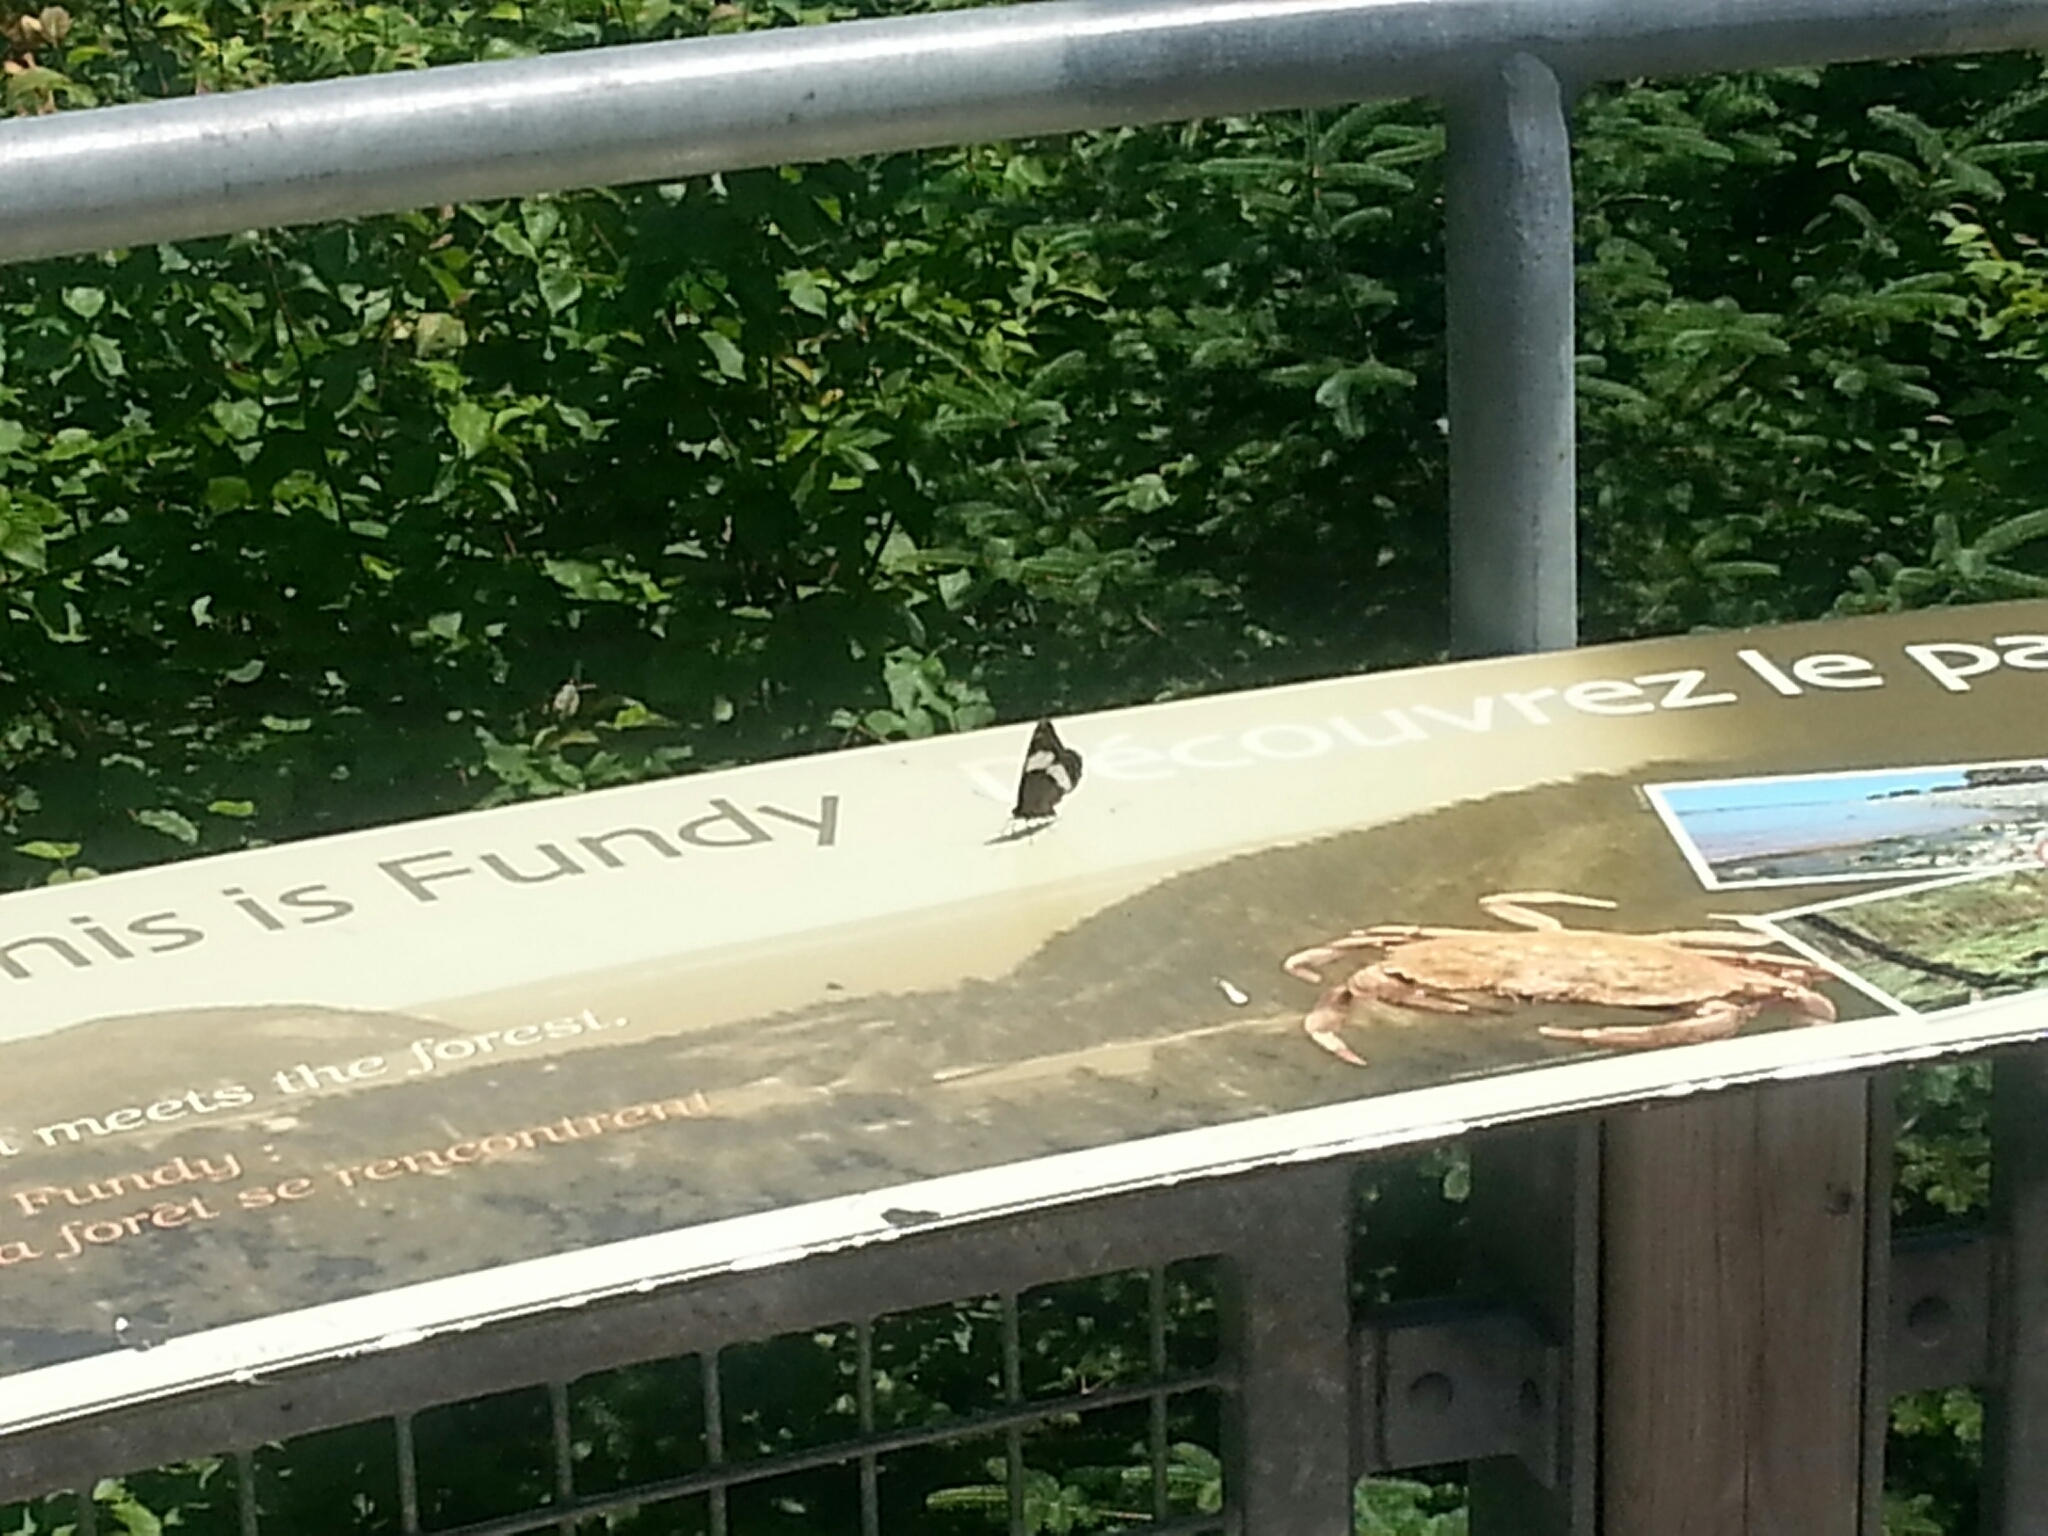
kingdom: Animalia
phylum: Arthropoda
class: Insecta
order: Lepidoptera
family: Nymphalidae
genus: Limenitis
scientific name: Limenitis arthemis
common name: Red-spotted admiral
